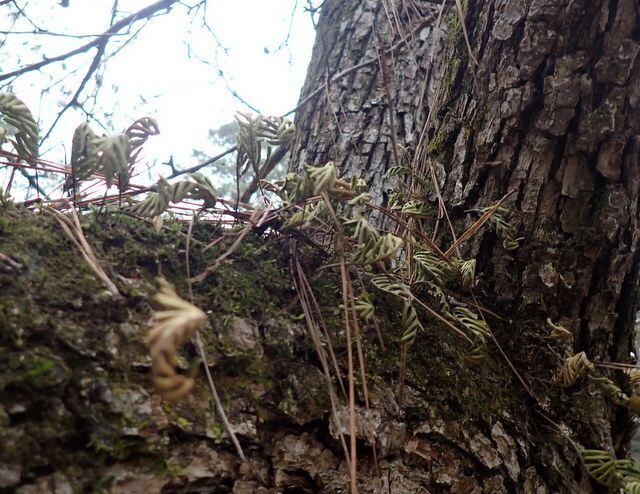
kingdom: Plantae
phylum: Tracheophyta
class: Polypodiopsida
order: Polypodiales
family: Polypodiaceae
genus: Pleopeltis
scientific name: Pleopeltis michauxiana
